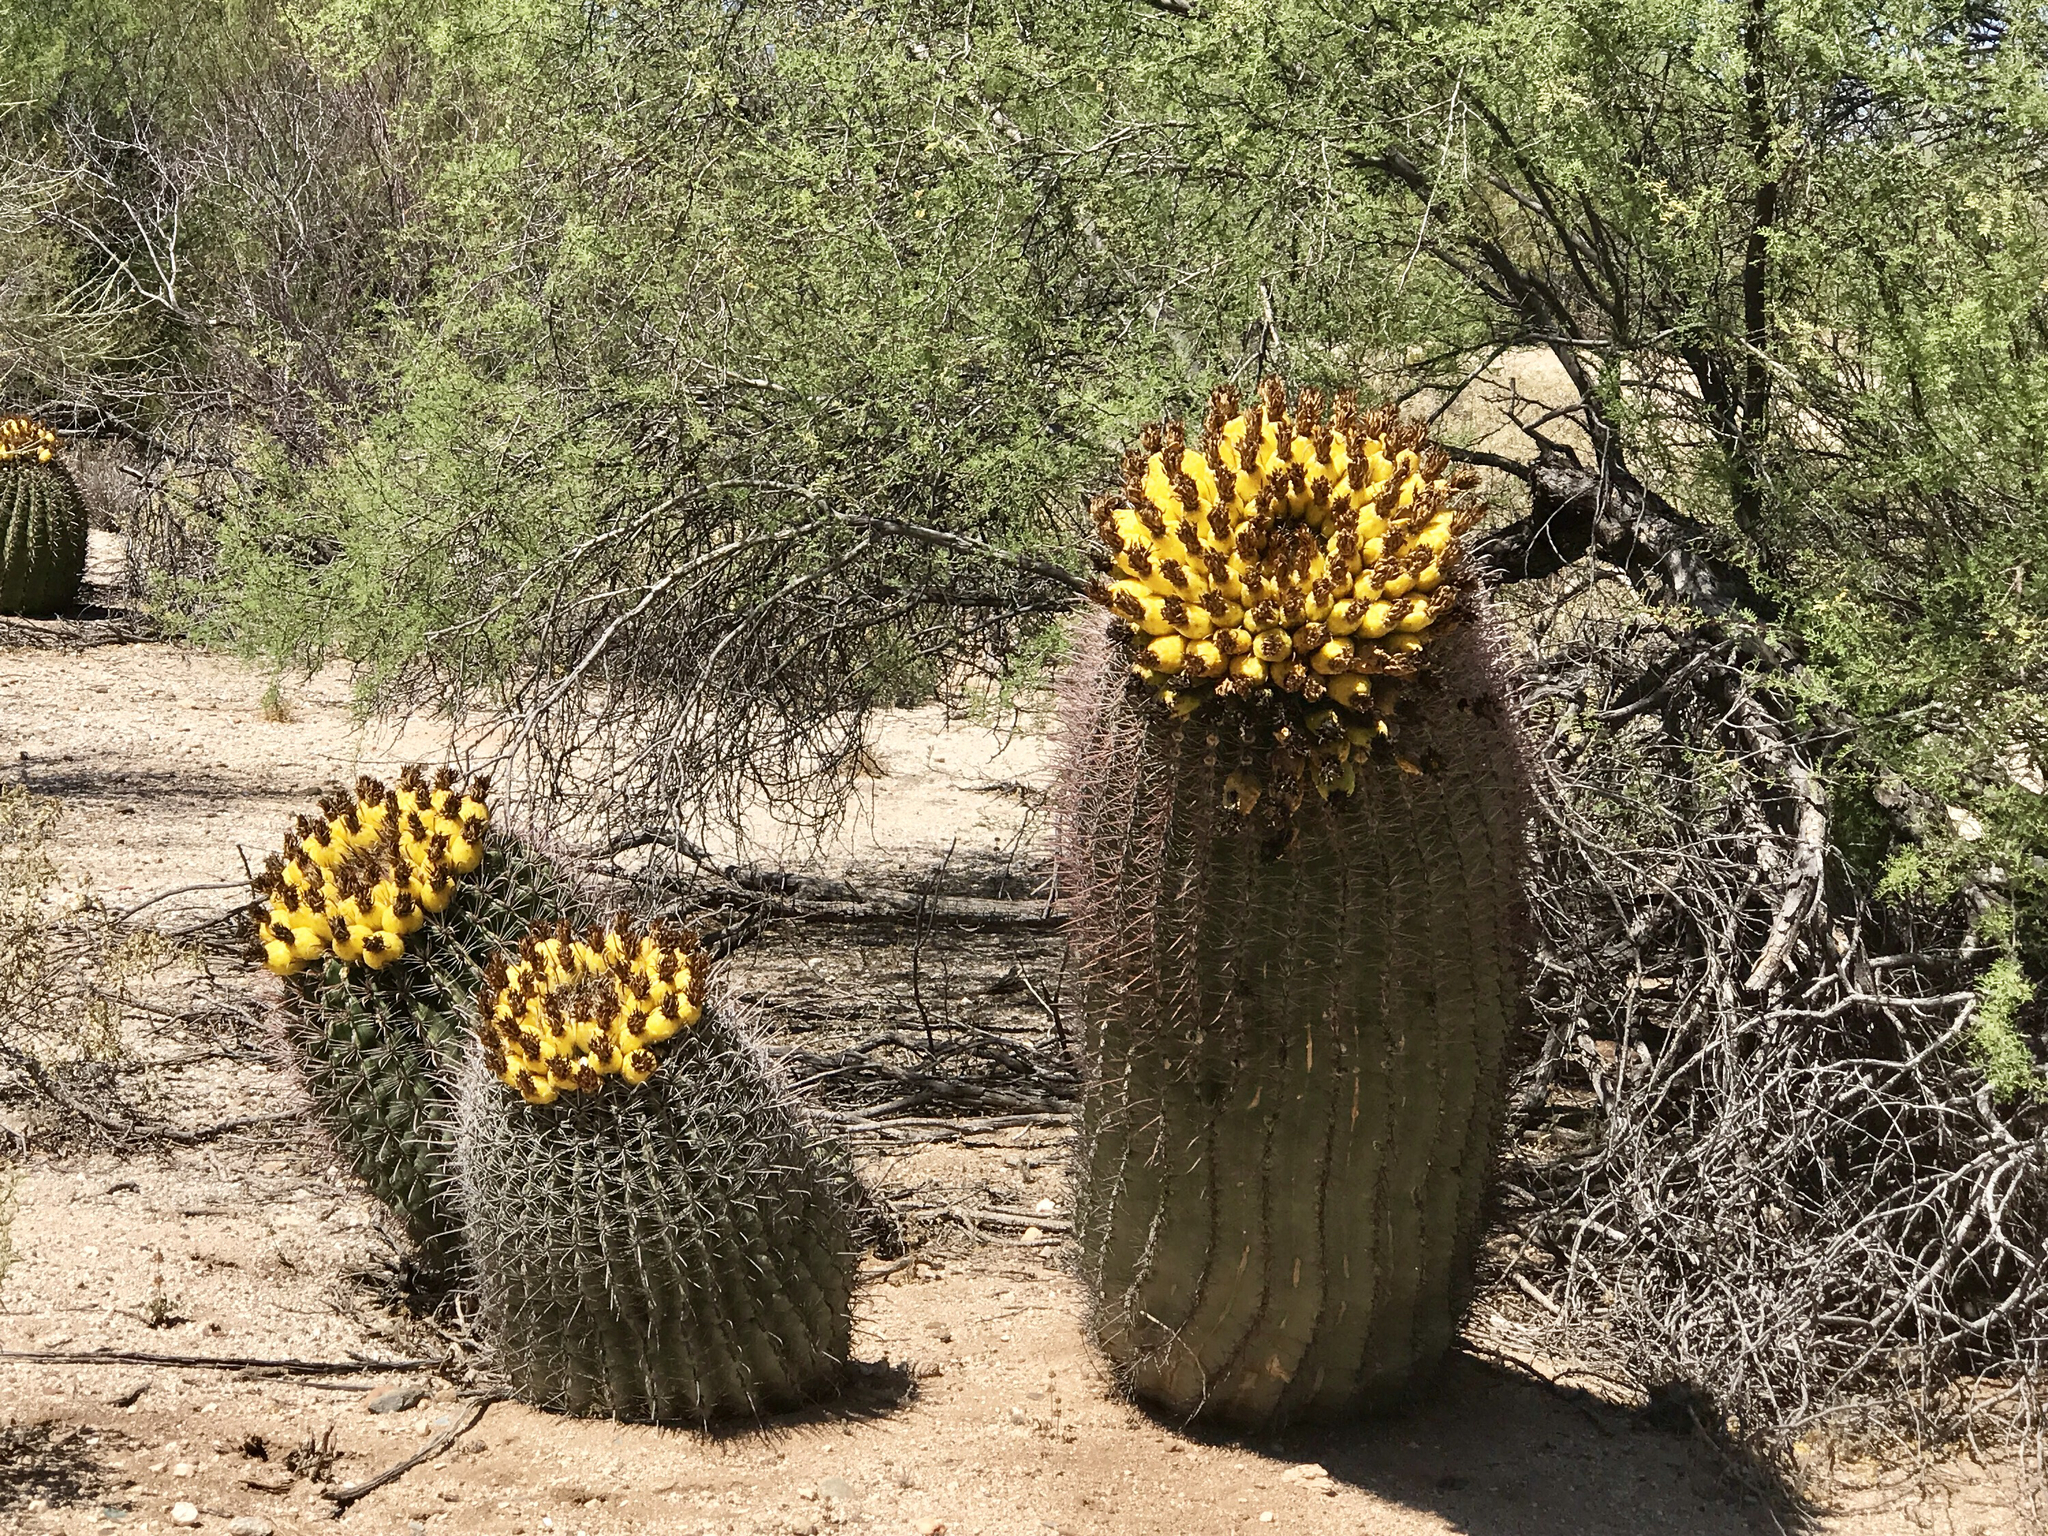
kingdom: Plantae
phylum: Tracheophyta
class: Magnoliopsida
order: Caryophyllales
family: Cactaceae
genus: Ferocactus
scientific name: Ferocactus wislizeni
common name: Candy barrel cactus
